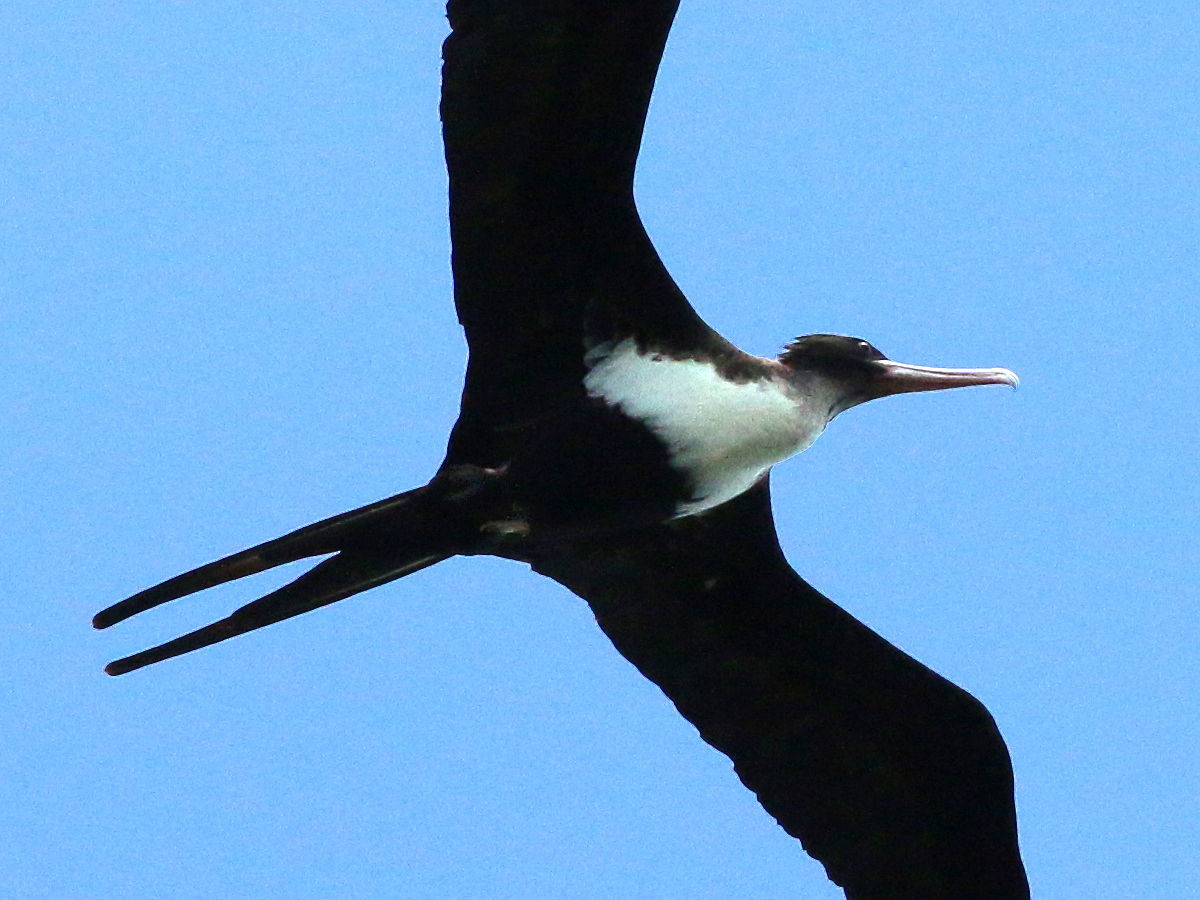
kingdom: Animalia
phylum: Chordata
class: Aves
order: Suliformes
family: Fregatidae
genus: Fregata
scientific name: Fregata minor
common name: Great frigatebird
